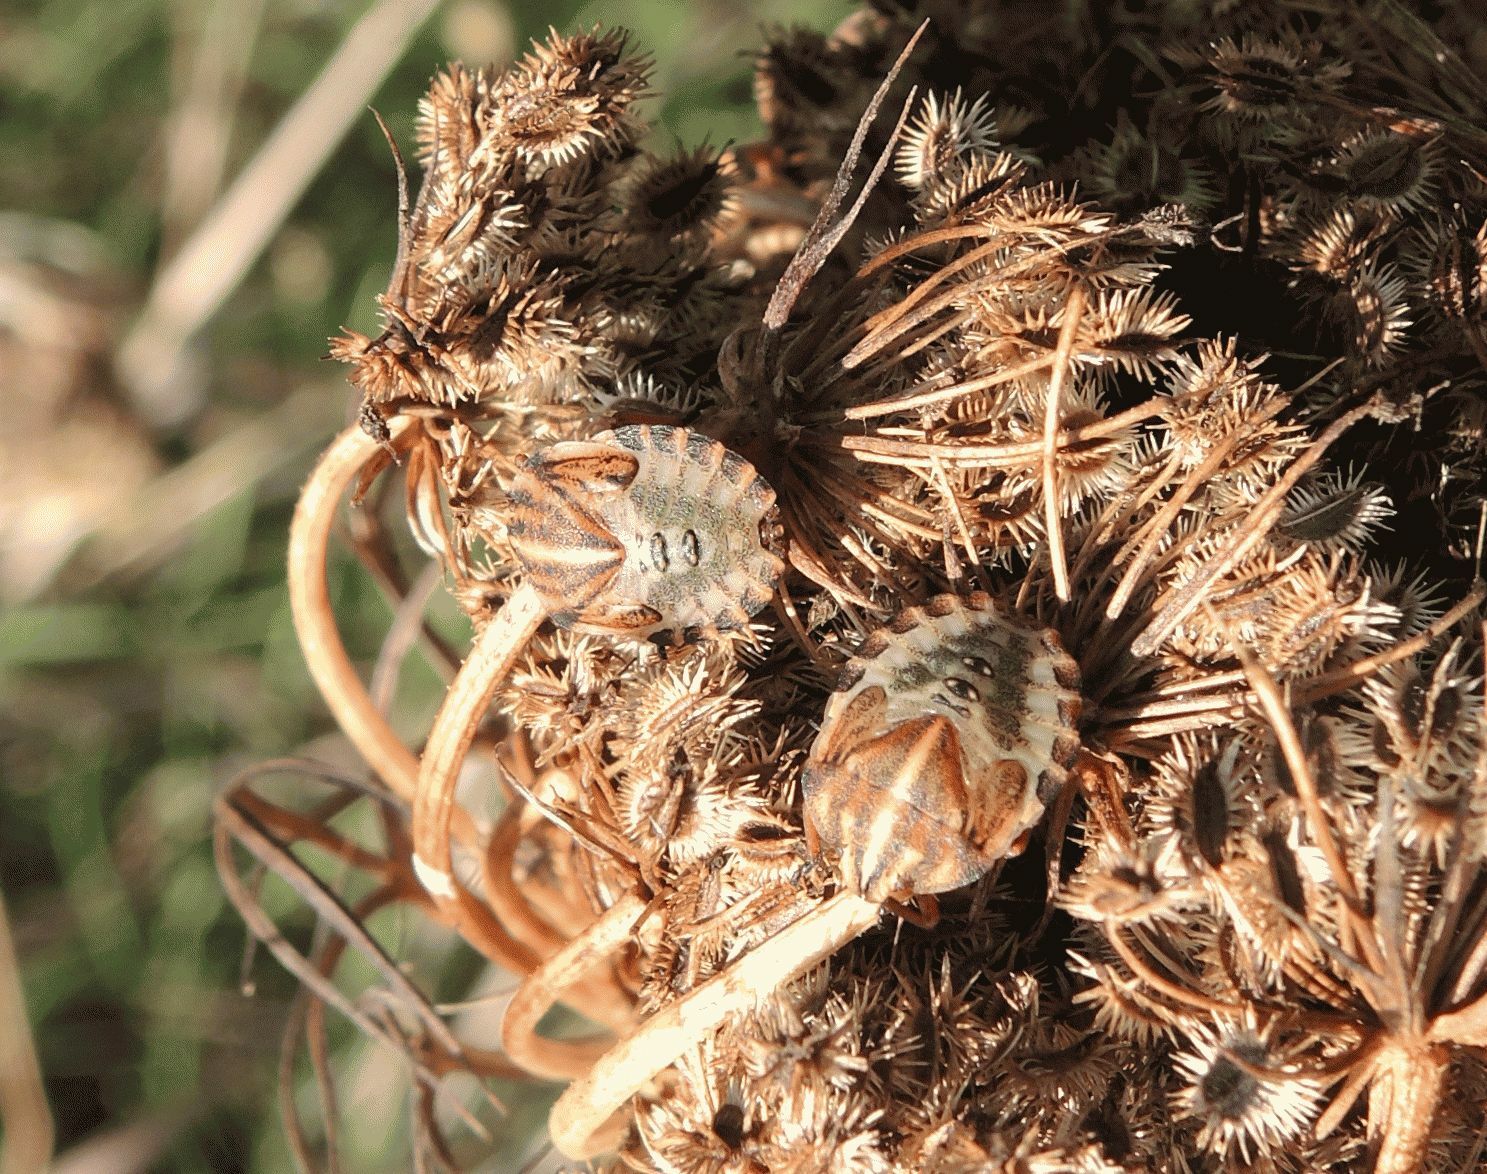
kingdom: Animalia
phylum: Arthropoda
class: Insecta
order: Hemiptera
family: Pentatomidae
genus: Graphosoma
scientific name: Graphosoma italicum
